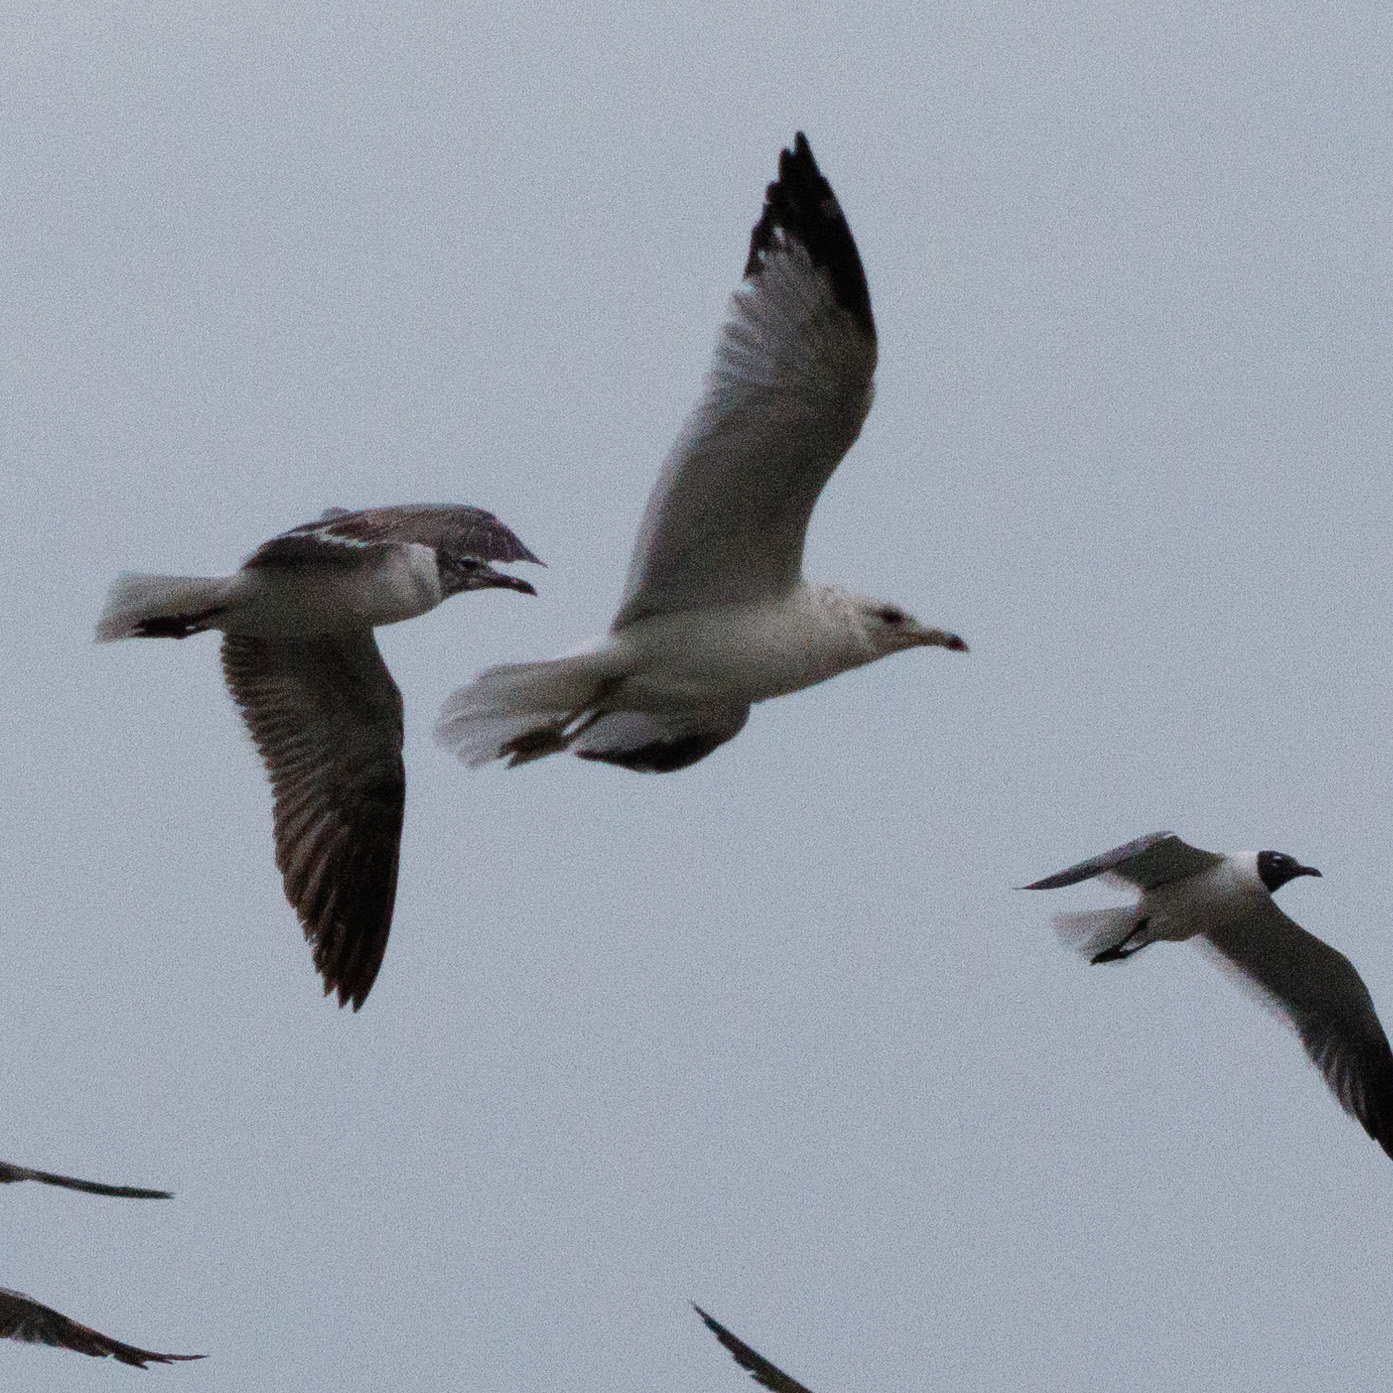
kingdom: Animalia
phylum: Chordata
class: Aves
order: Charadriiformes
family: Laridae
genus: Larus
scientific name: Larus delawarensis
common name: Ring-billed gull
